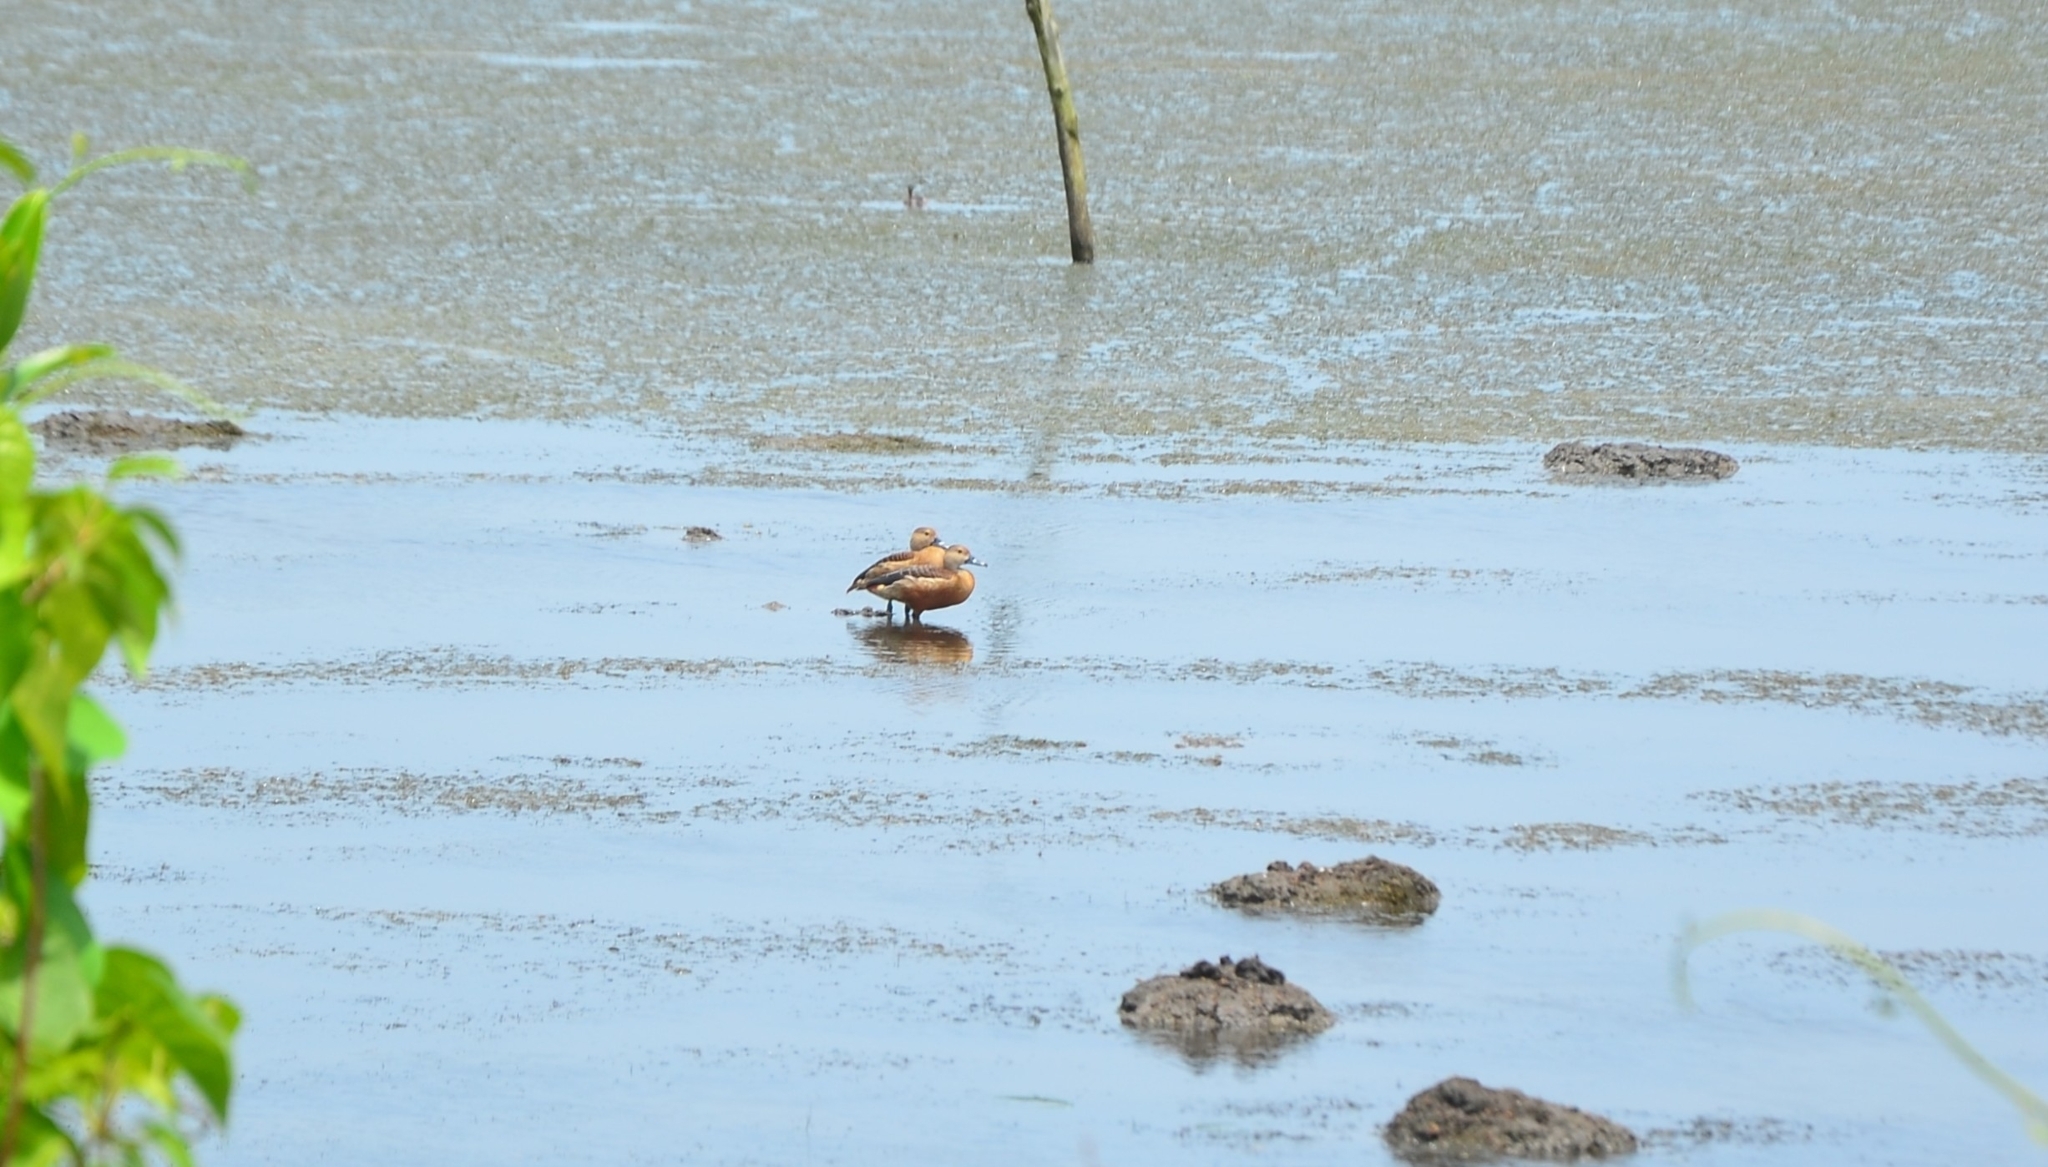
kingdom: Animalia
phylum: Chordata
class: Aves
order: Anseriformes
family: Anatidae
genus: Dendrocygna
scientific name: Dendrocygna javanica
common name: Lesser whistling-duck
